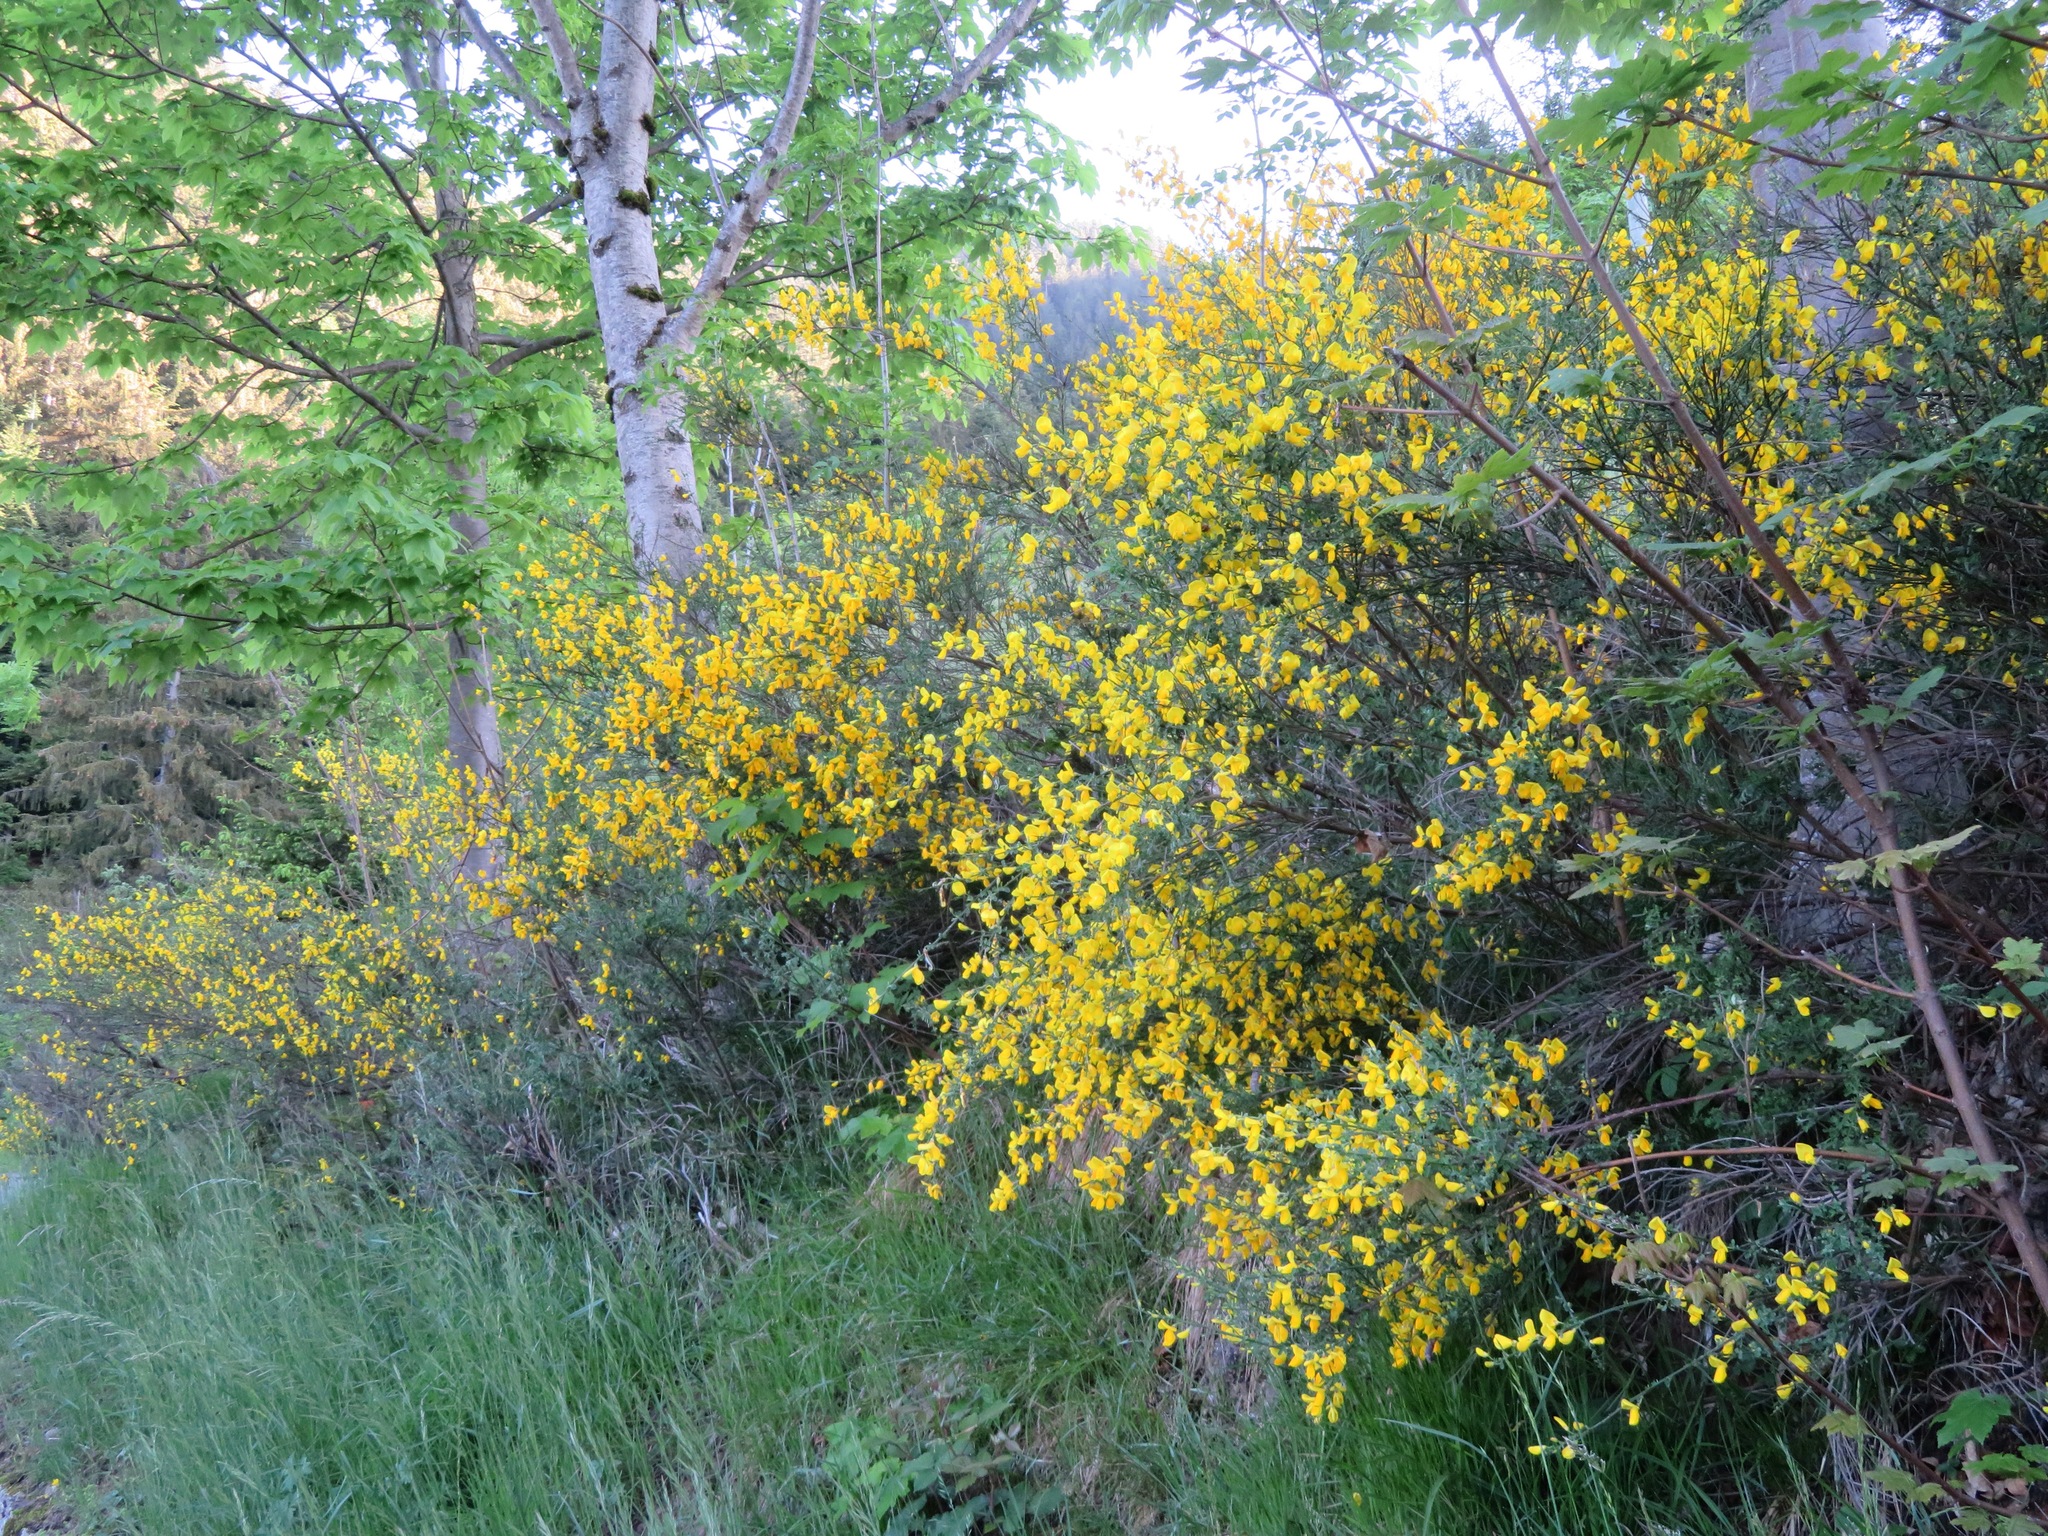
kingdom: Plantae
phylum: Tracheophyta
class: Magnoliopsida
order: Fabales
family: Fabaceae
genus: Cytisus
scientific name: Cytisus scoparius
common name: Scotch broom
